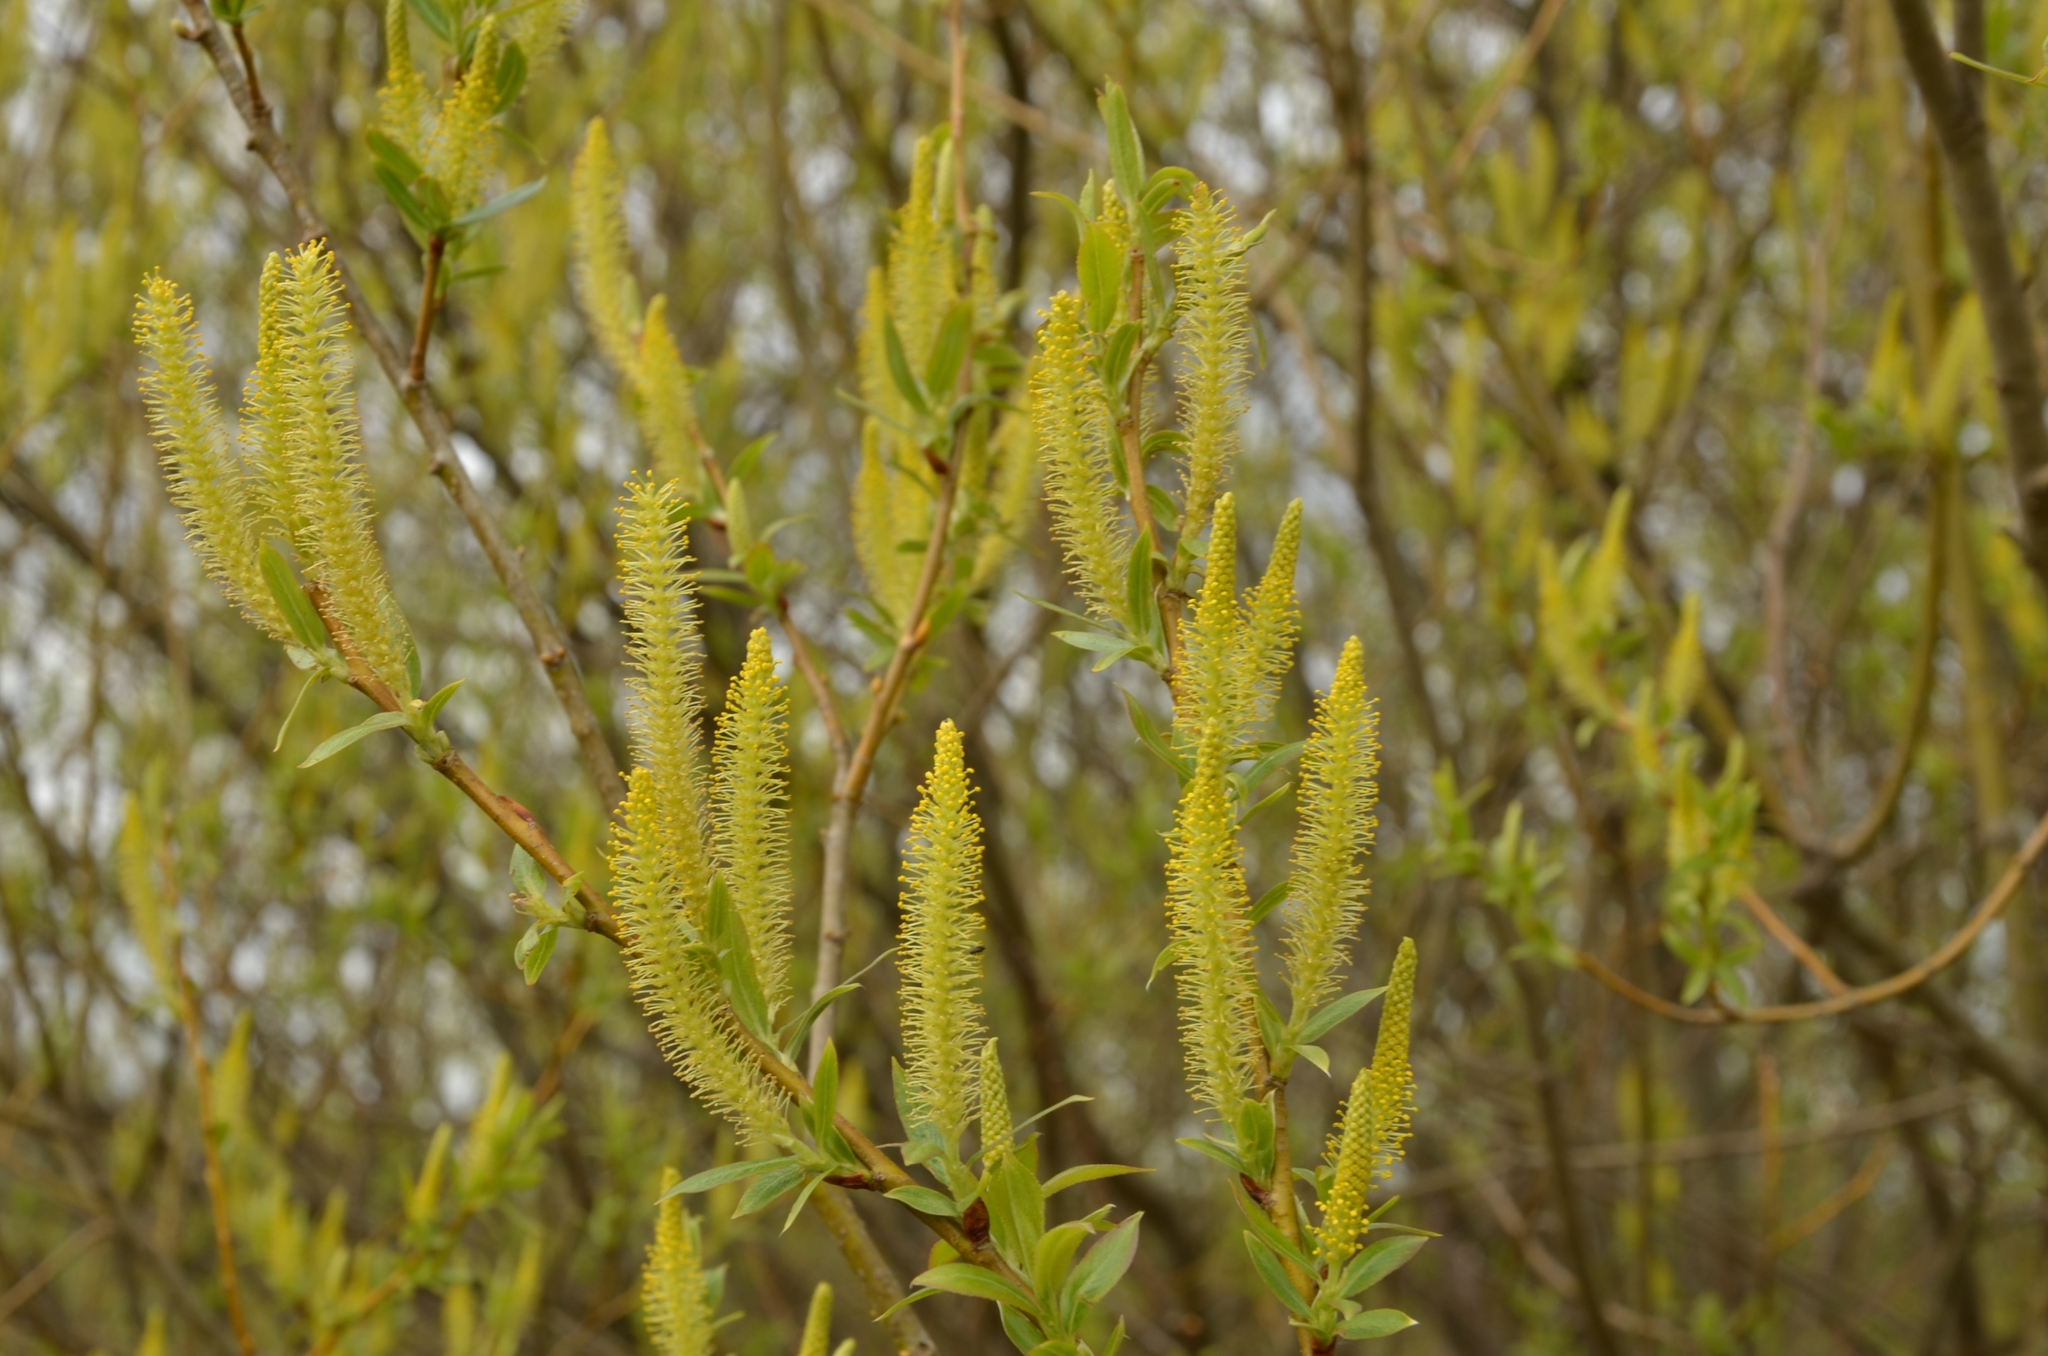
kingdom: Plantae
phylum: Tracheophyta
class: Magnoliopsida
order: Malpighiales
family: Salicaceae
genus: Salix
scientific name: Salix triandra
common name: Almond willow
